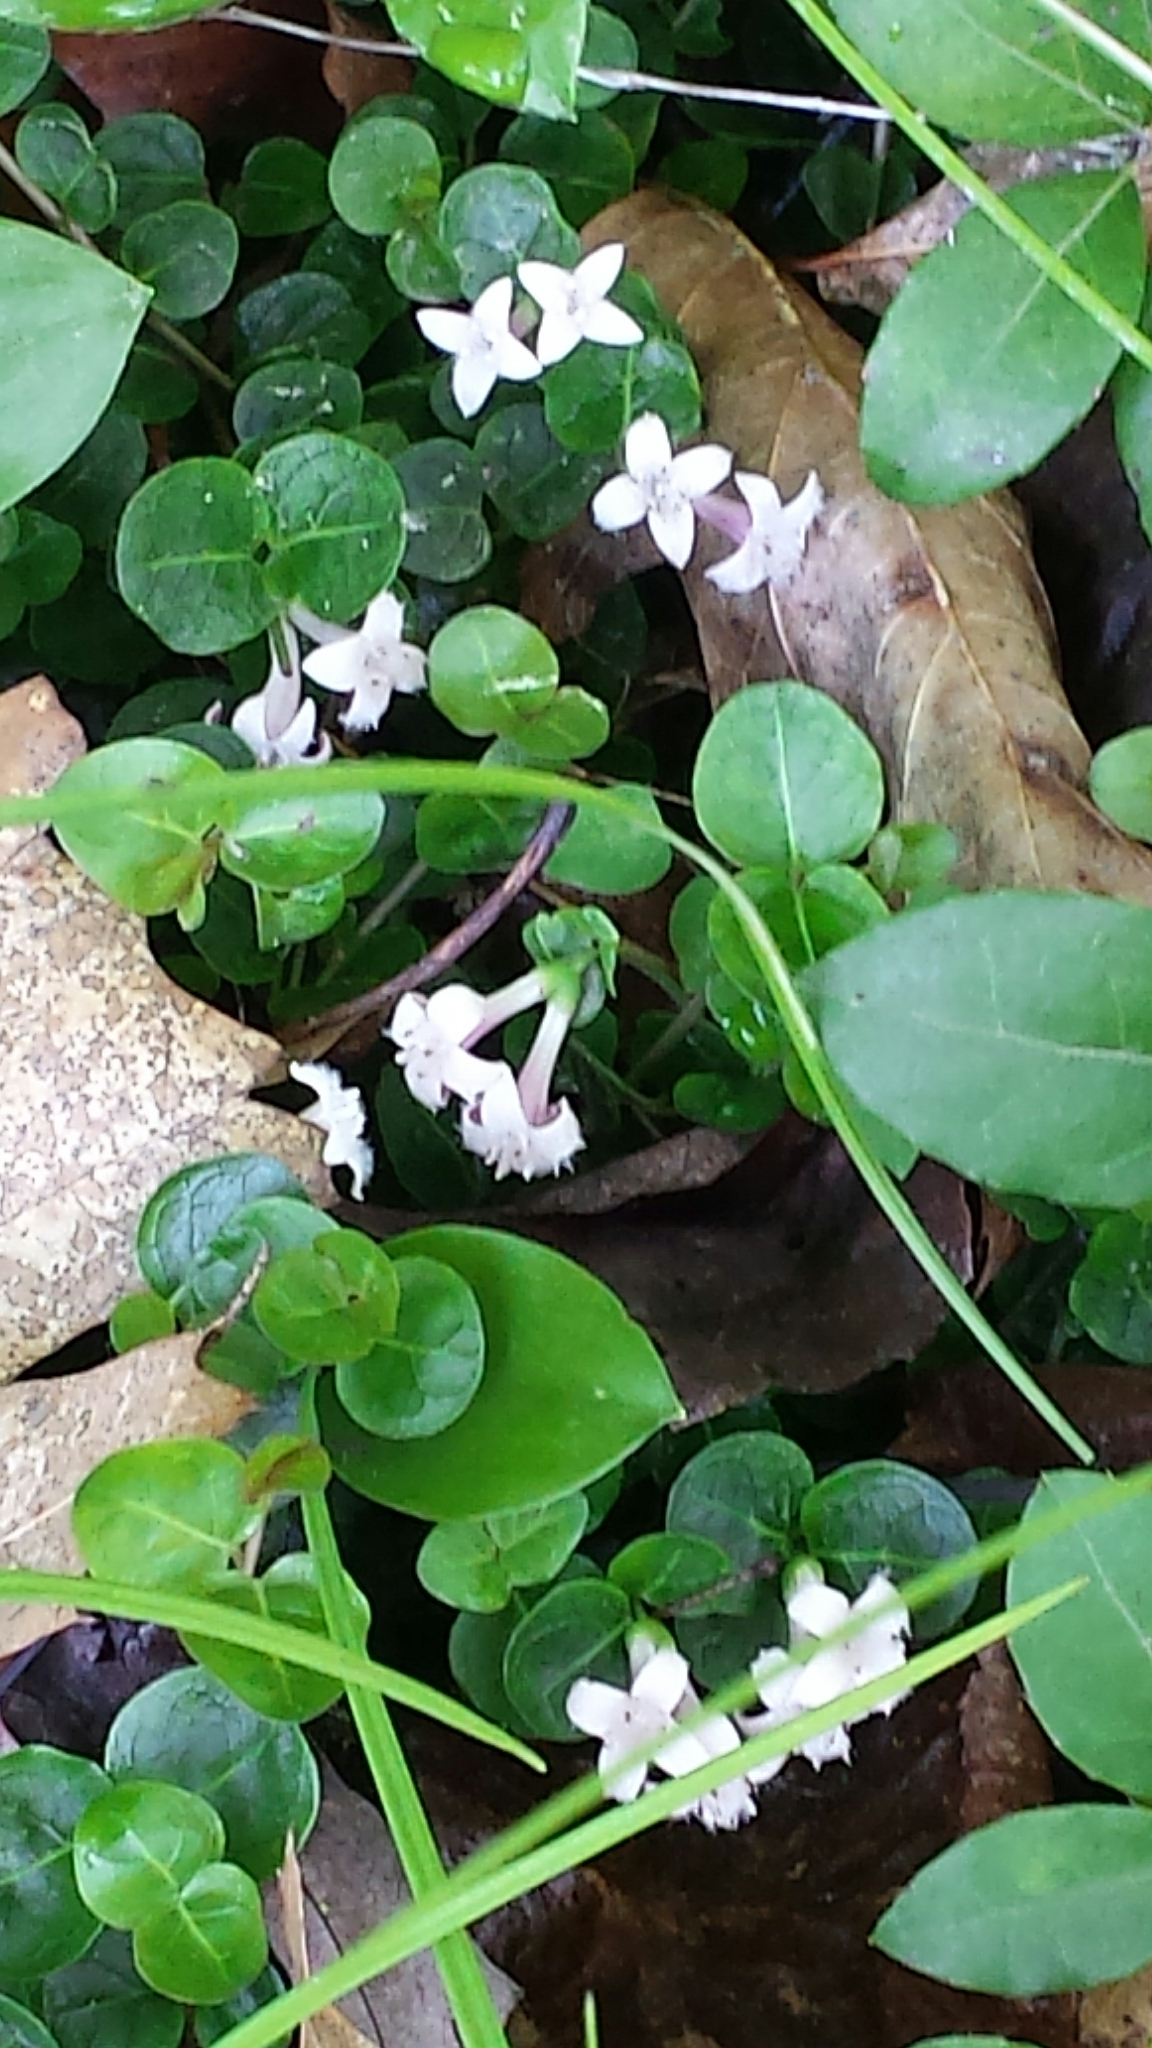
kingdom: Plantae
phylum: Tracheophyta
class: Magnoliopsida
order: Gentianales
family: Rubiaceae
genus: Mitchella
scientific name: Mitchella repens
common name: Partridge-berry
